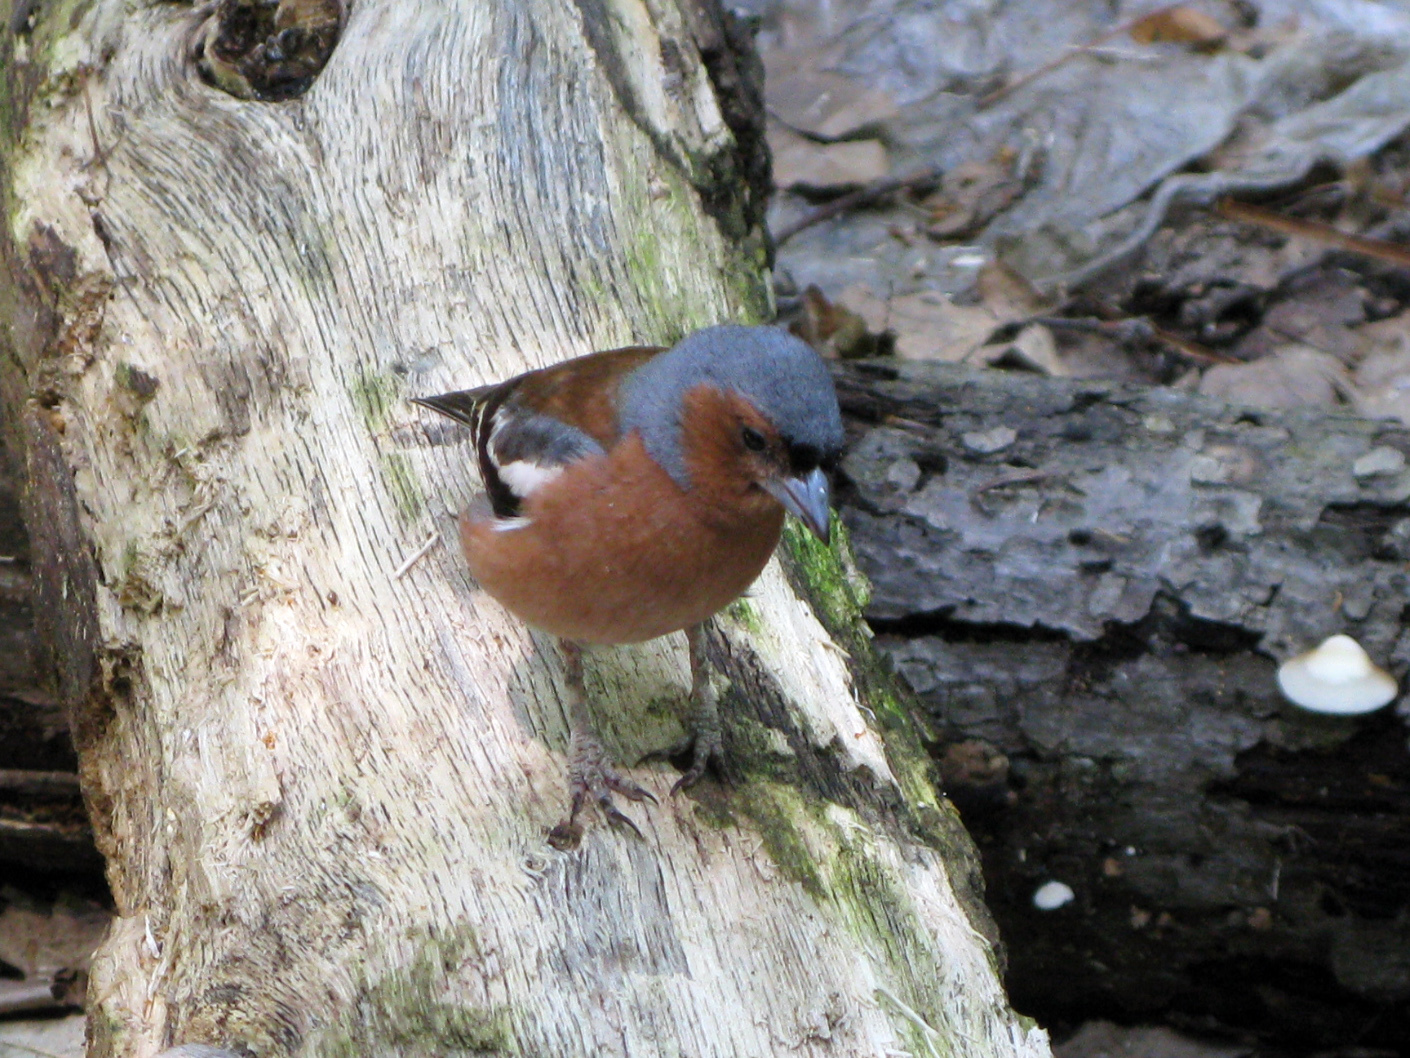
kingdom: Animalia
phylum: Chordata
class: Aves
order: Passeriformes
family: Fringillidae
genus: Fringilla
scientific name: Fringilla coelebs
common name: Common chaffinch
